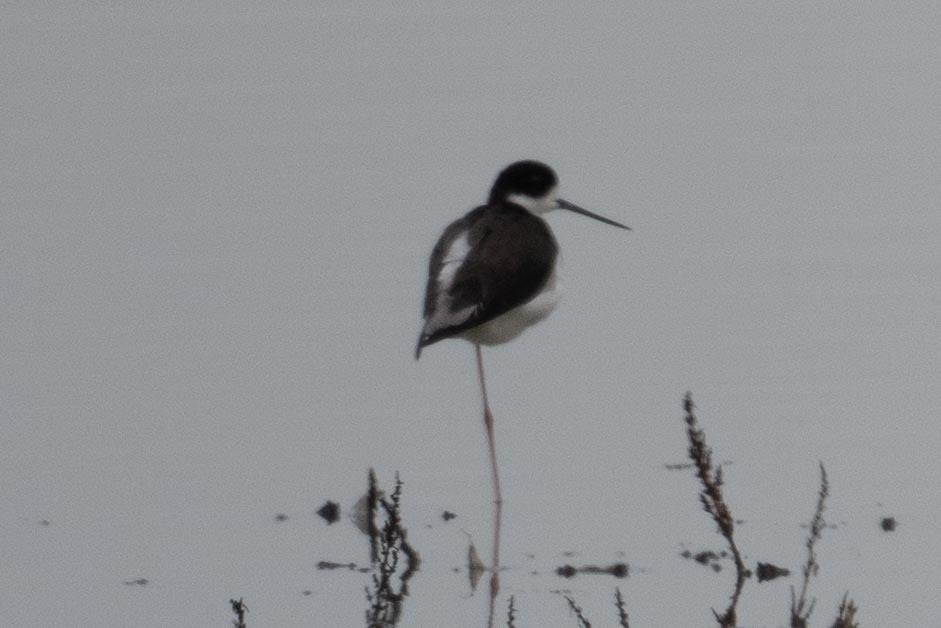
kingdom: Animalia
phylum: Chordata
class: Aves
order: Charadriiformes
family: Recurvirostridae
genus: Himantopus
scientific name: Himantopus mexicanus
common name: Black-necked stilt
